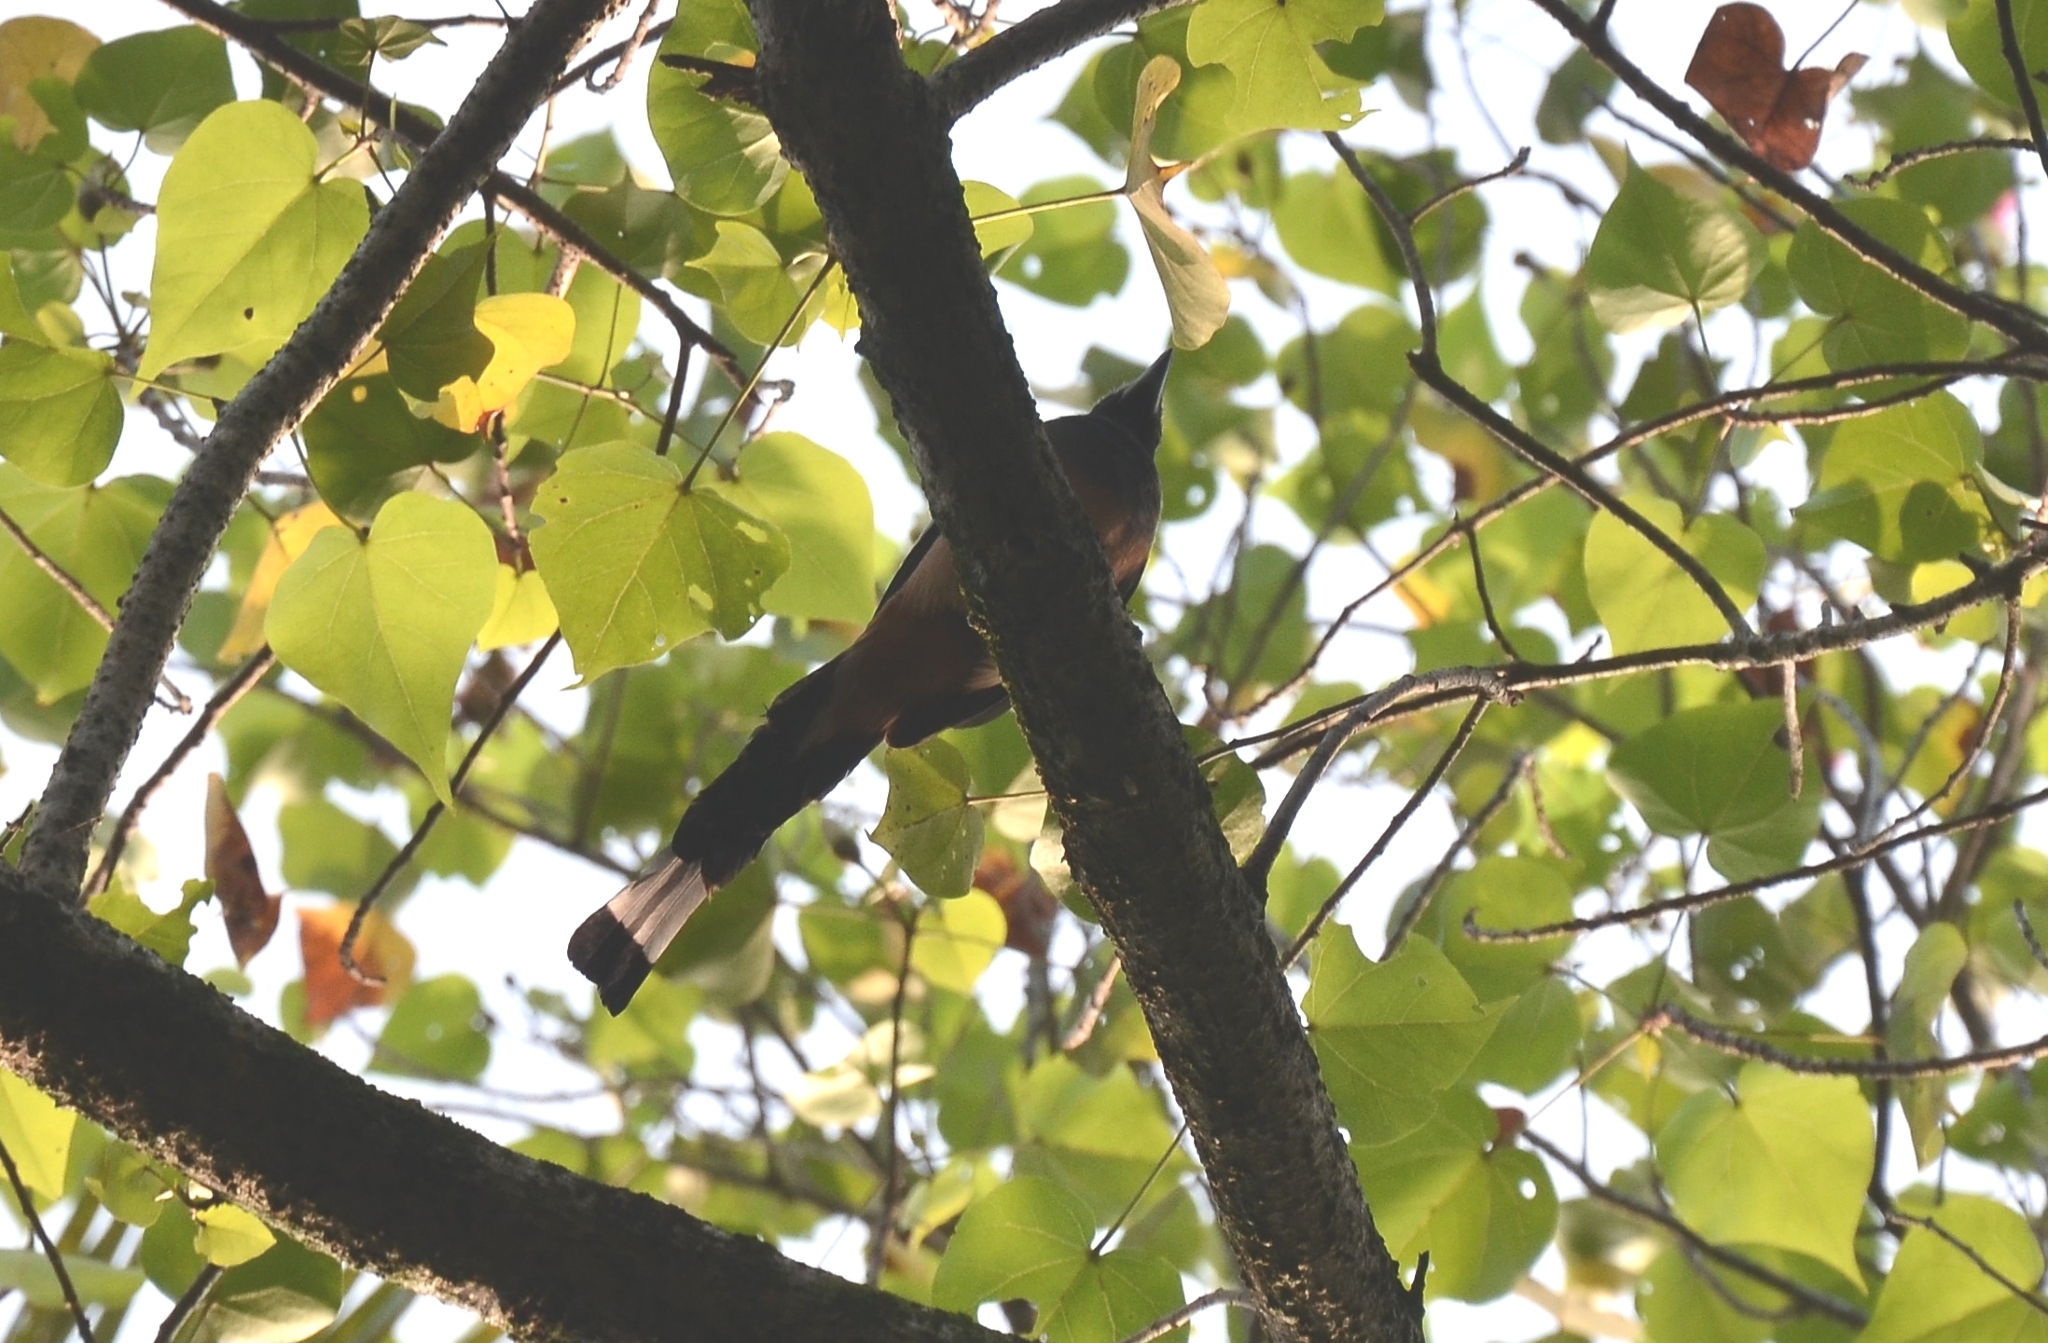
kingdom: Animalia
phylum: Chordata
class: Aves
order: Passeriformes
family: Corvidae
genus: Dendrocitta
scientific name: Dendrocitta vagabunda
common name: Rufous treepie
